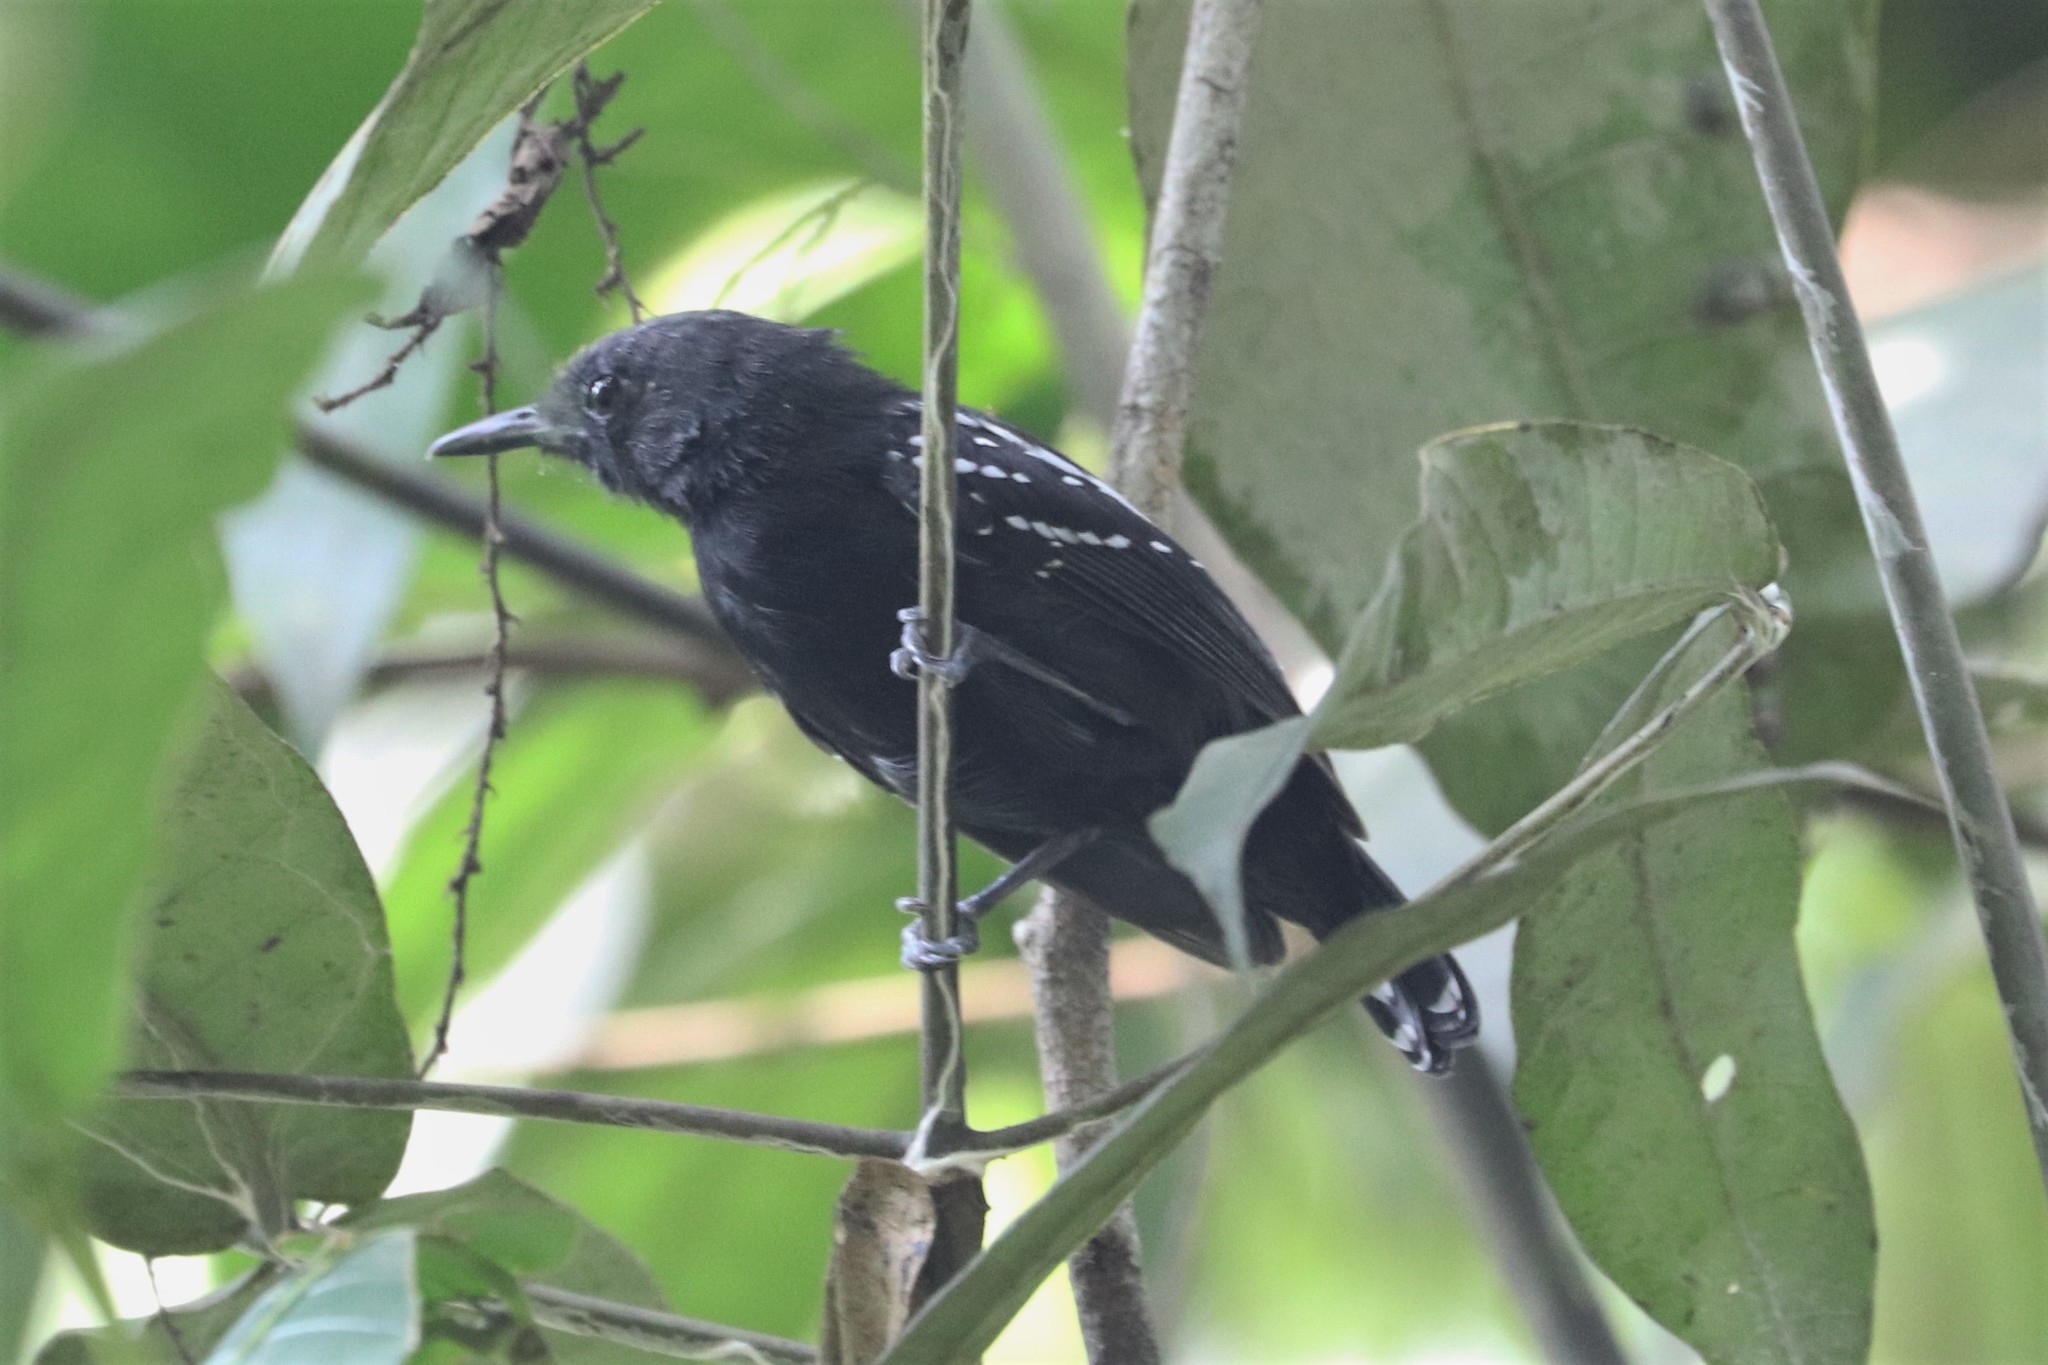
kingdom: Animalia
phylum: Chordata
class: Aves
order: Passeriformes
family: Thamnophilidae
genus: Myrmotherula
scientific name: Myrmotherula axillaris
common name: White-flanked antwren
